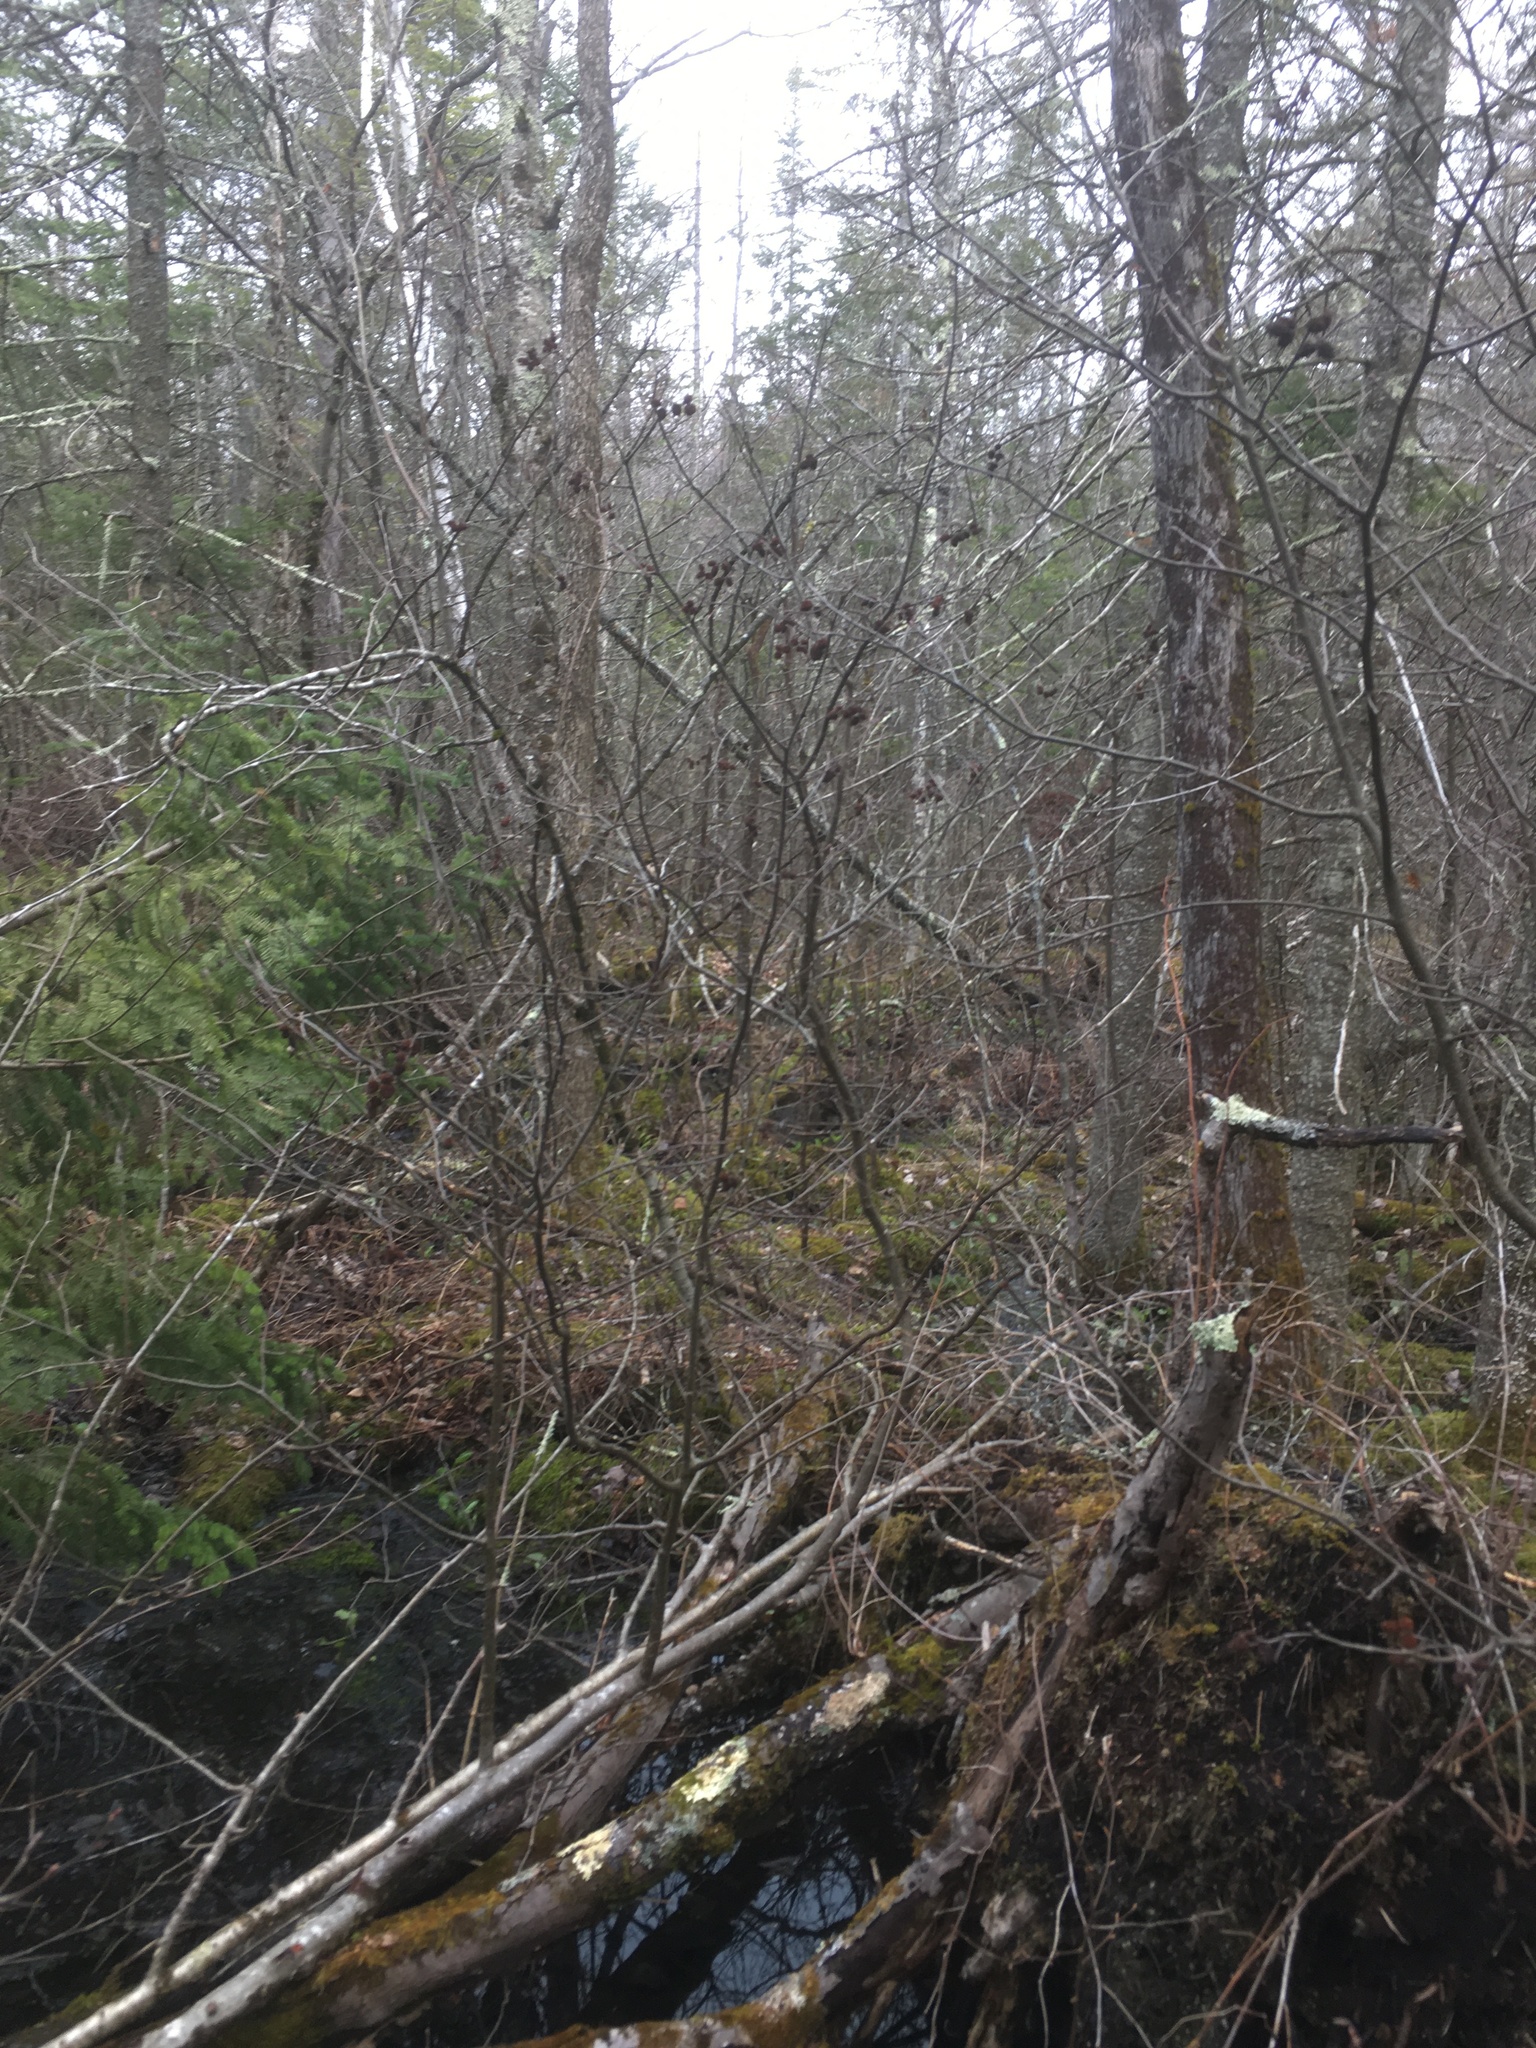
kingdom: Plantae
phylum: Tracheophyta
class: Magnoliopsida
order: Fagales
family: Betulaceae
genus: Alnus
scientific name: Alnus incana
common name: Grey alder
